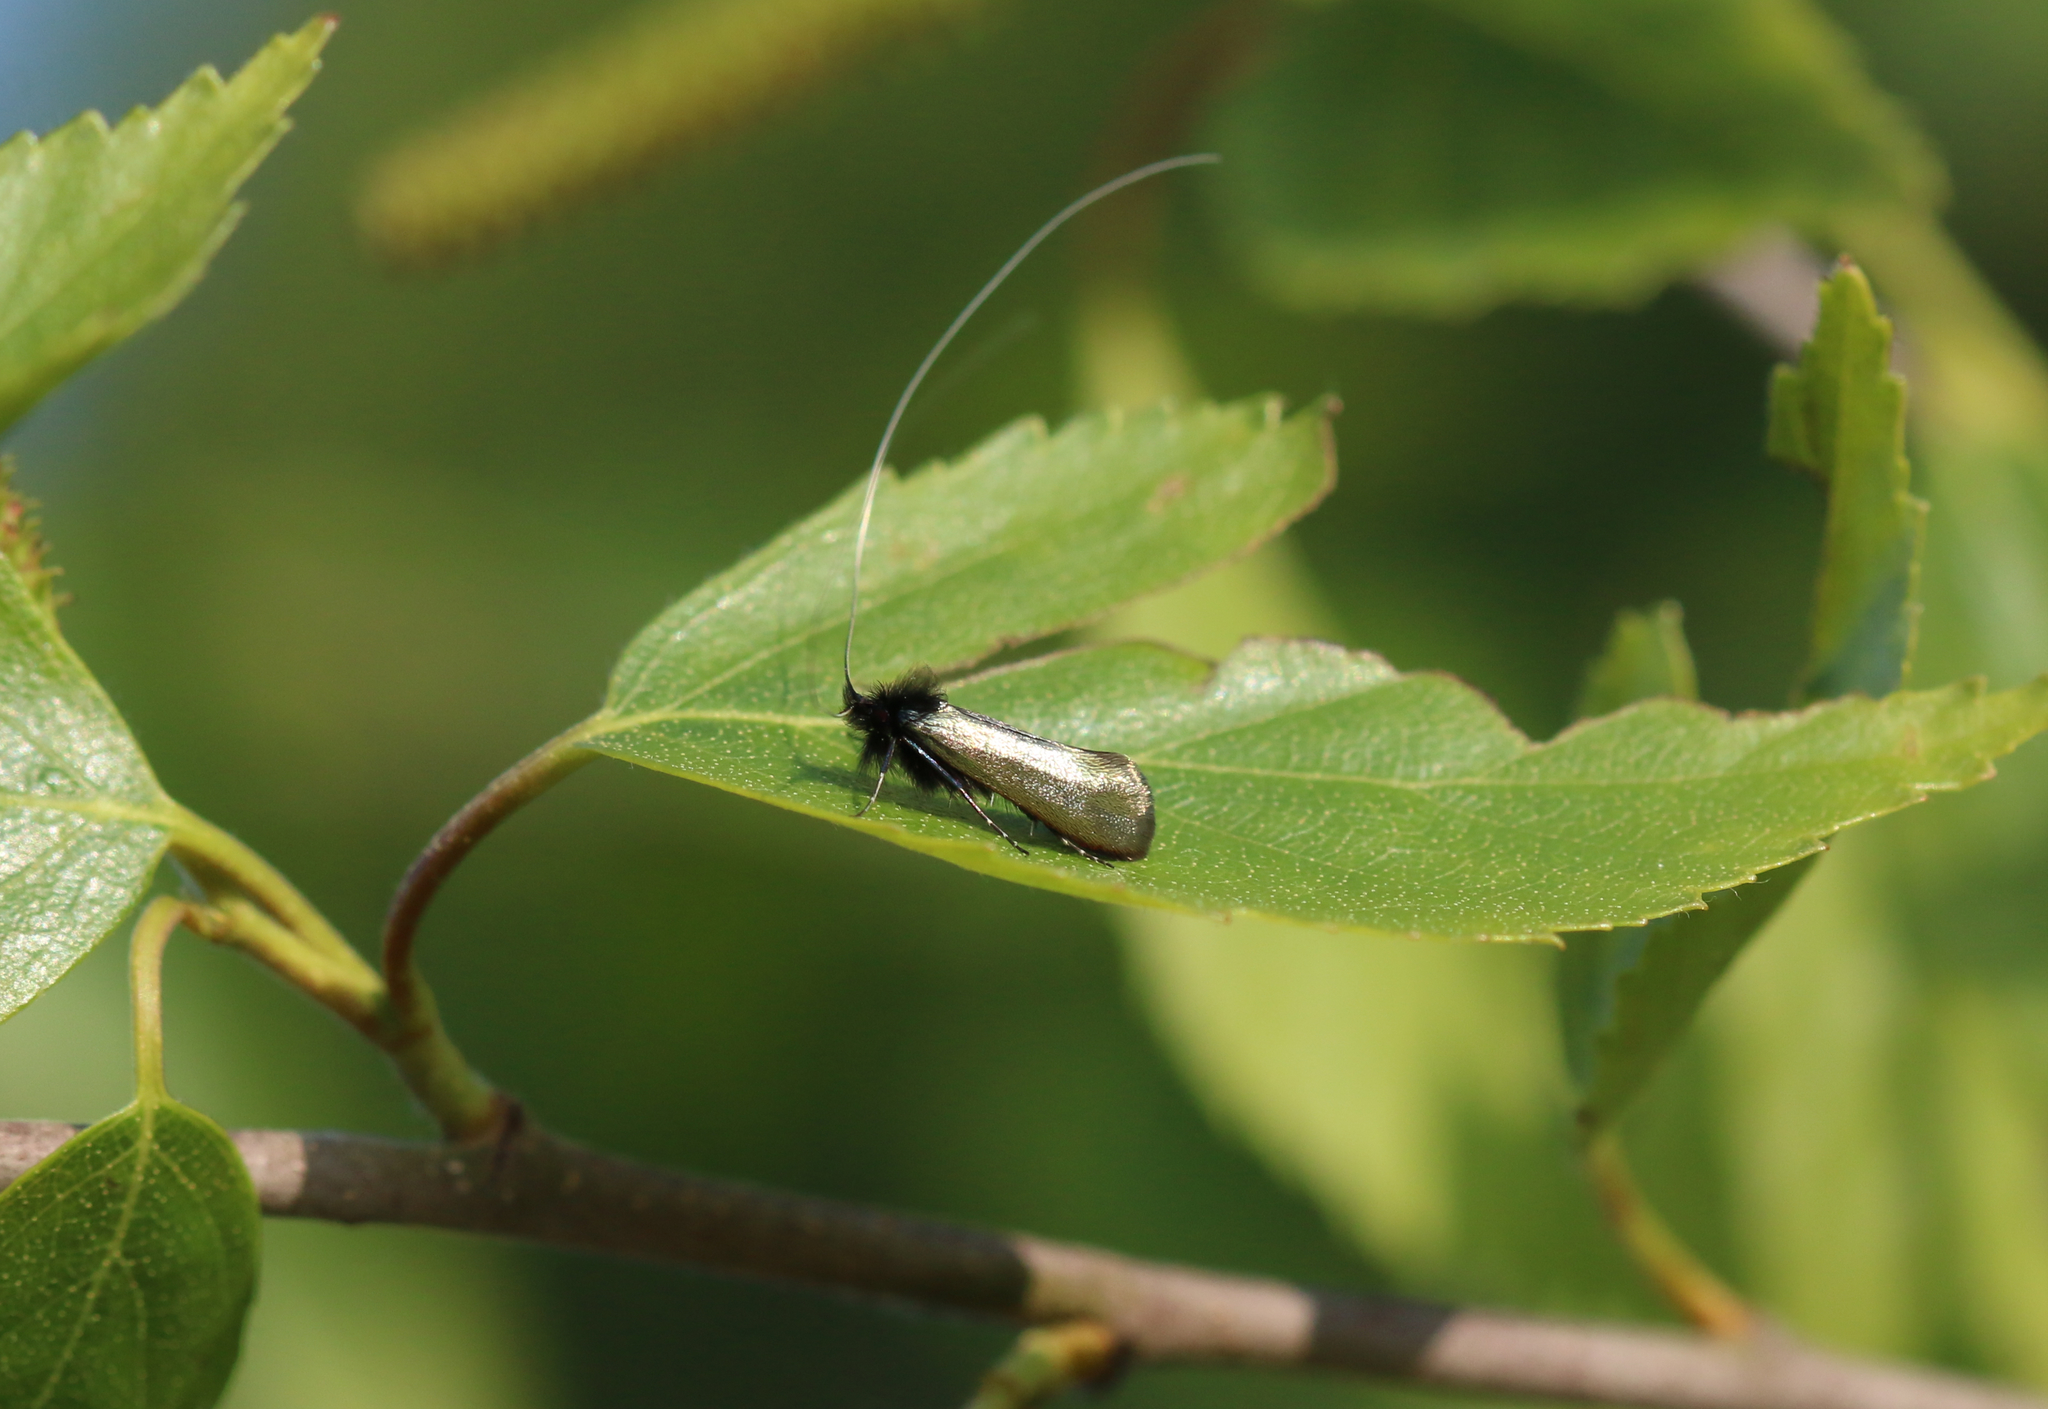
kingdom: Animalia
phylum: Arthropoda
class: Insecta
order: Lepidoptera
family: Adelidae
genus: Adela
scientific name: Adela viridella
